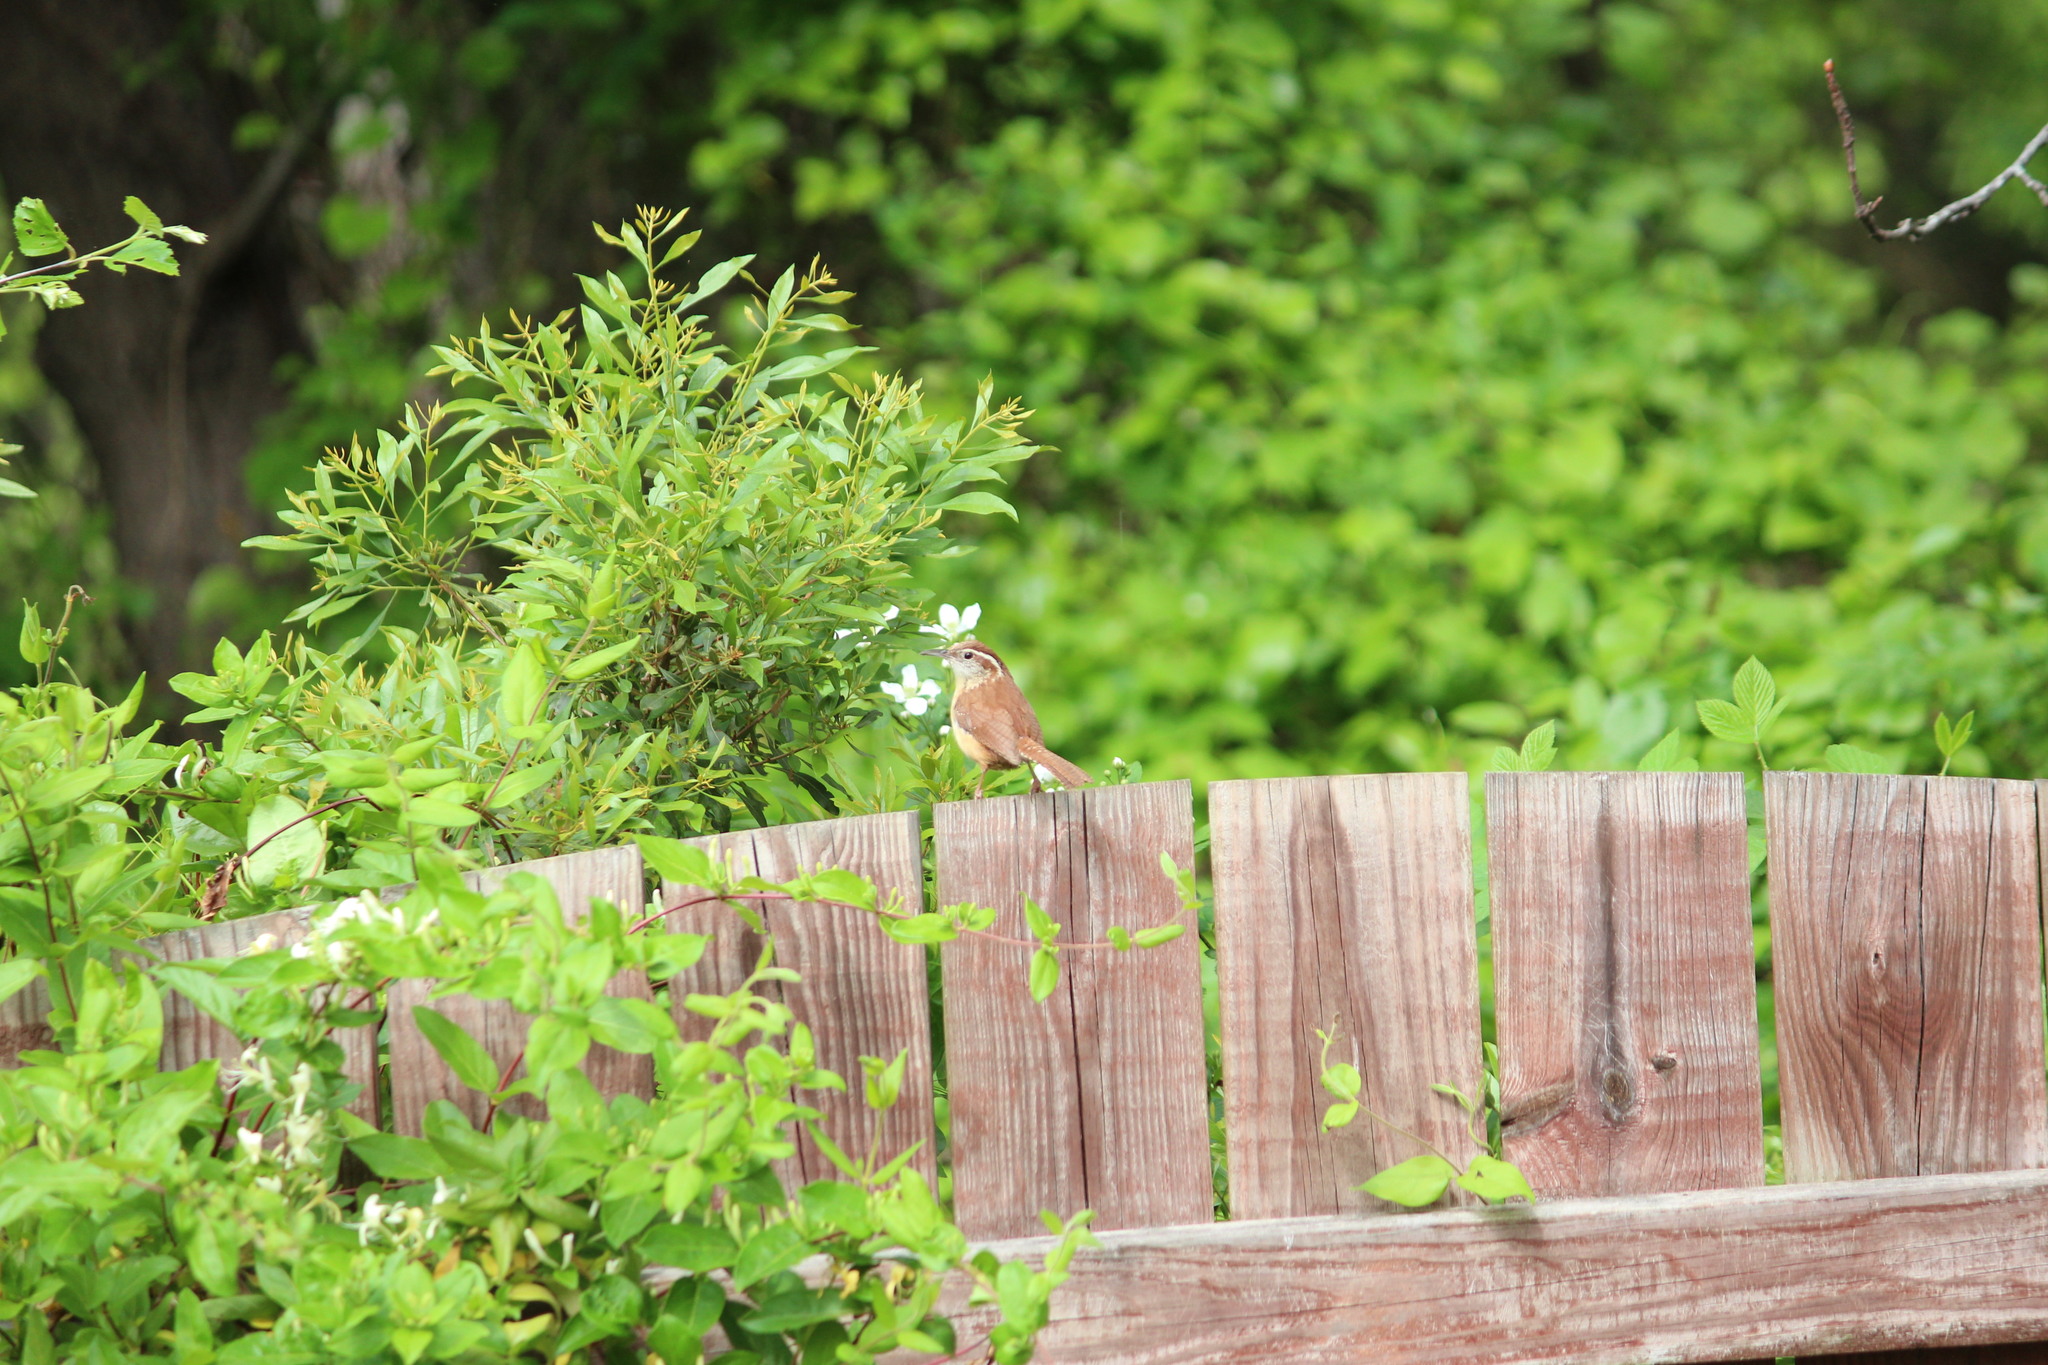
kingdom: Animalia
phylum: Chordata
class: Aves
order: Passeriformes
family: Troglodytidae
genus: Thryothorus
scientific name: Thryothorus ludovicianus
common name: Carolina wren
